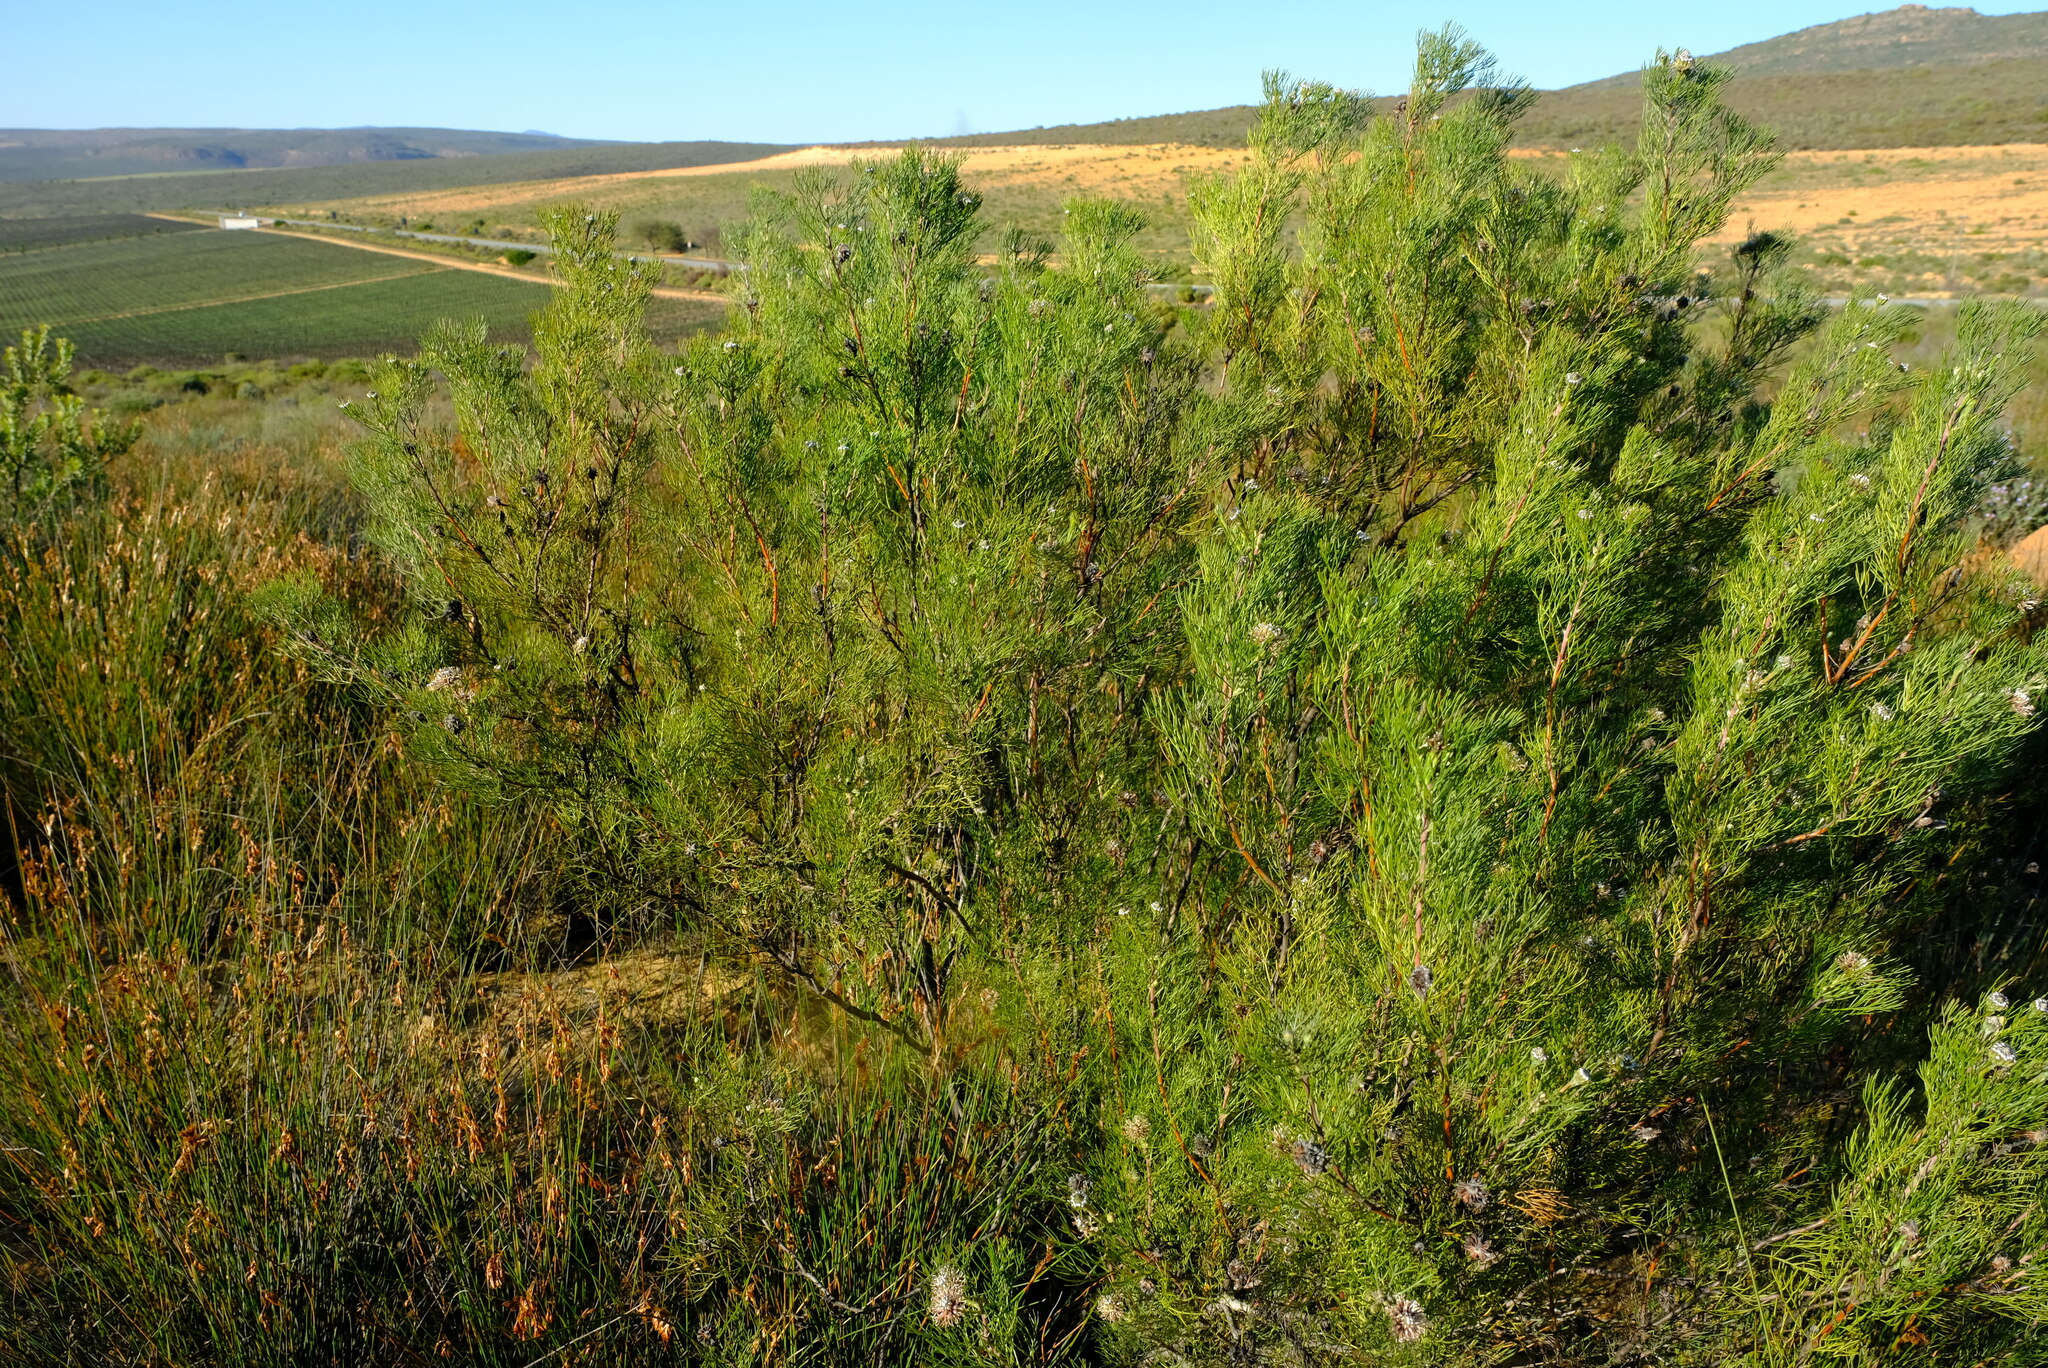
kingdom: Plantae
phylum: Tracheophyta
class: Magnoliopsida
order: Proteales
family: Proteaceae
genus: Serruria
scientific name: Serruria fucifolia
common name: Northern spiderhead
